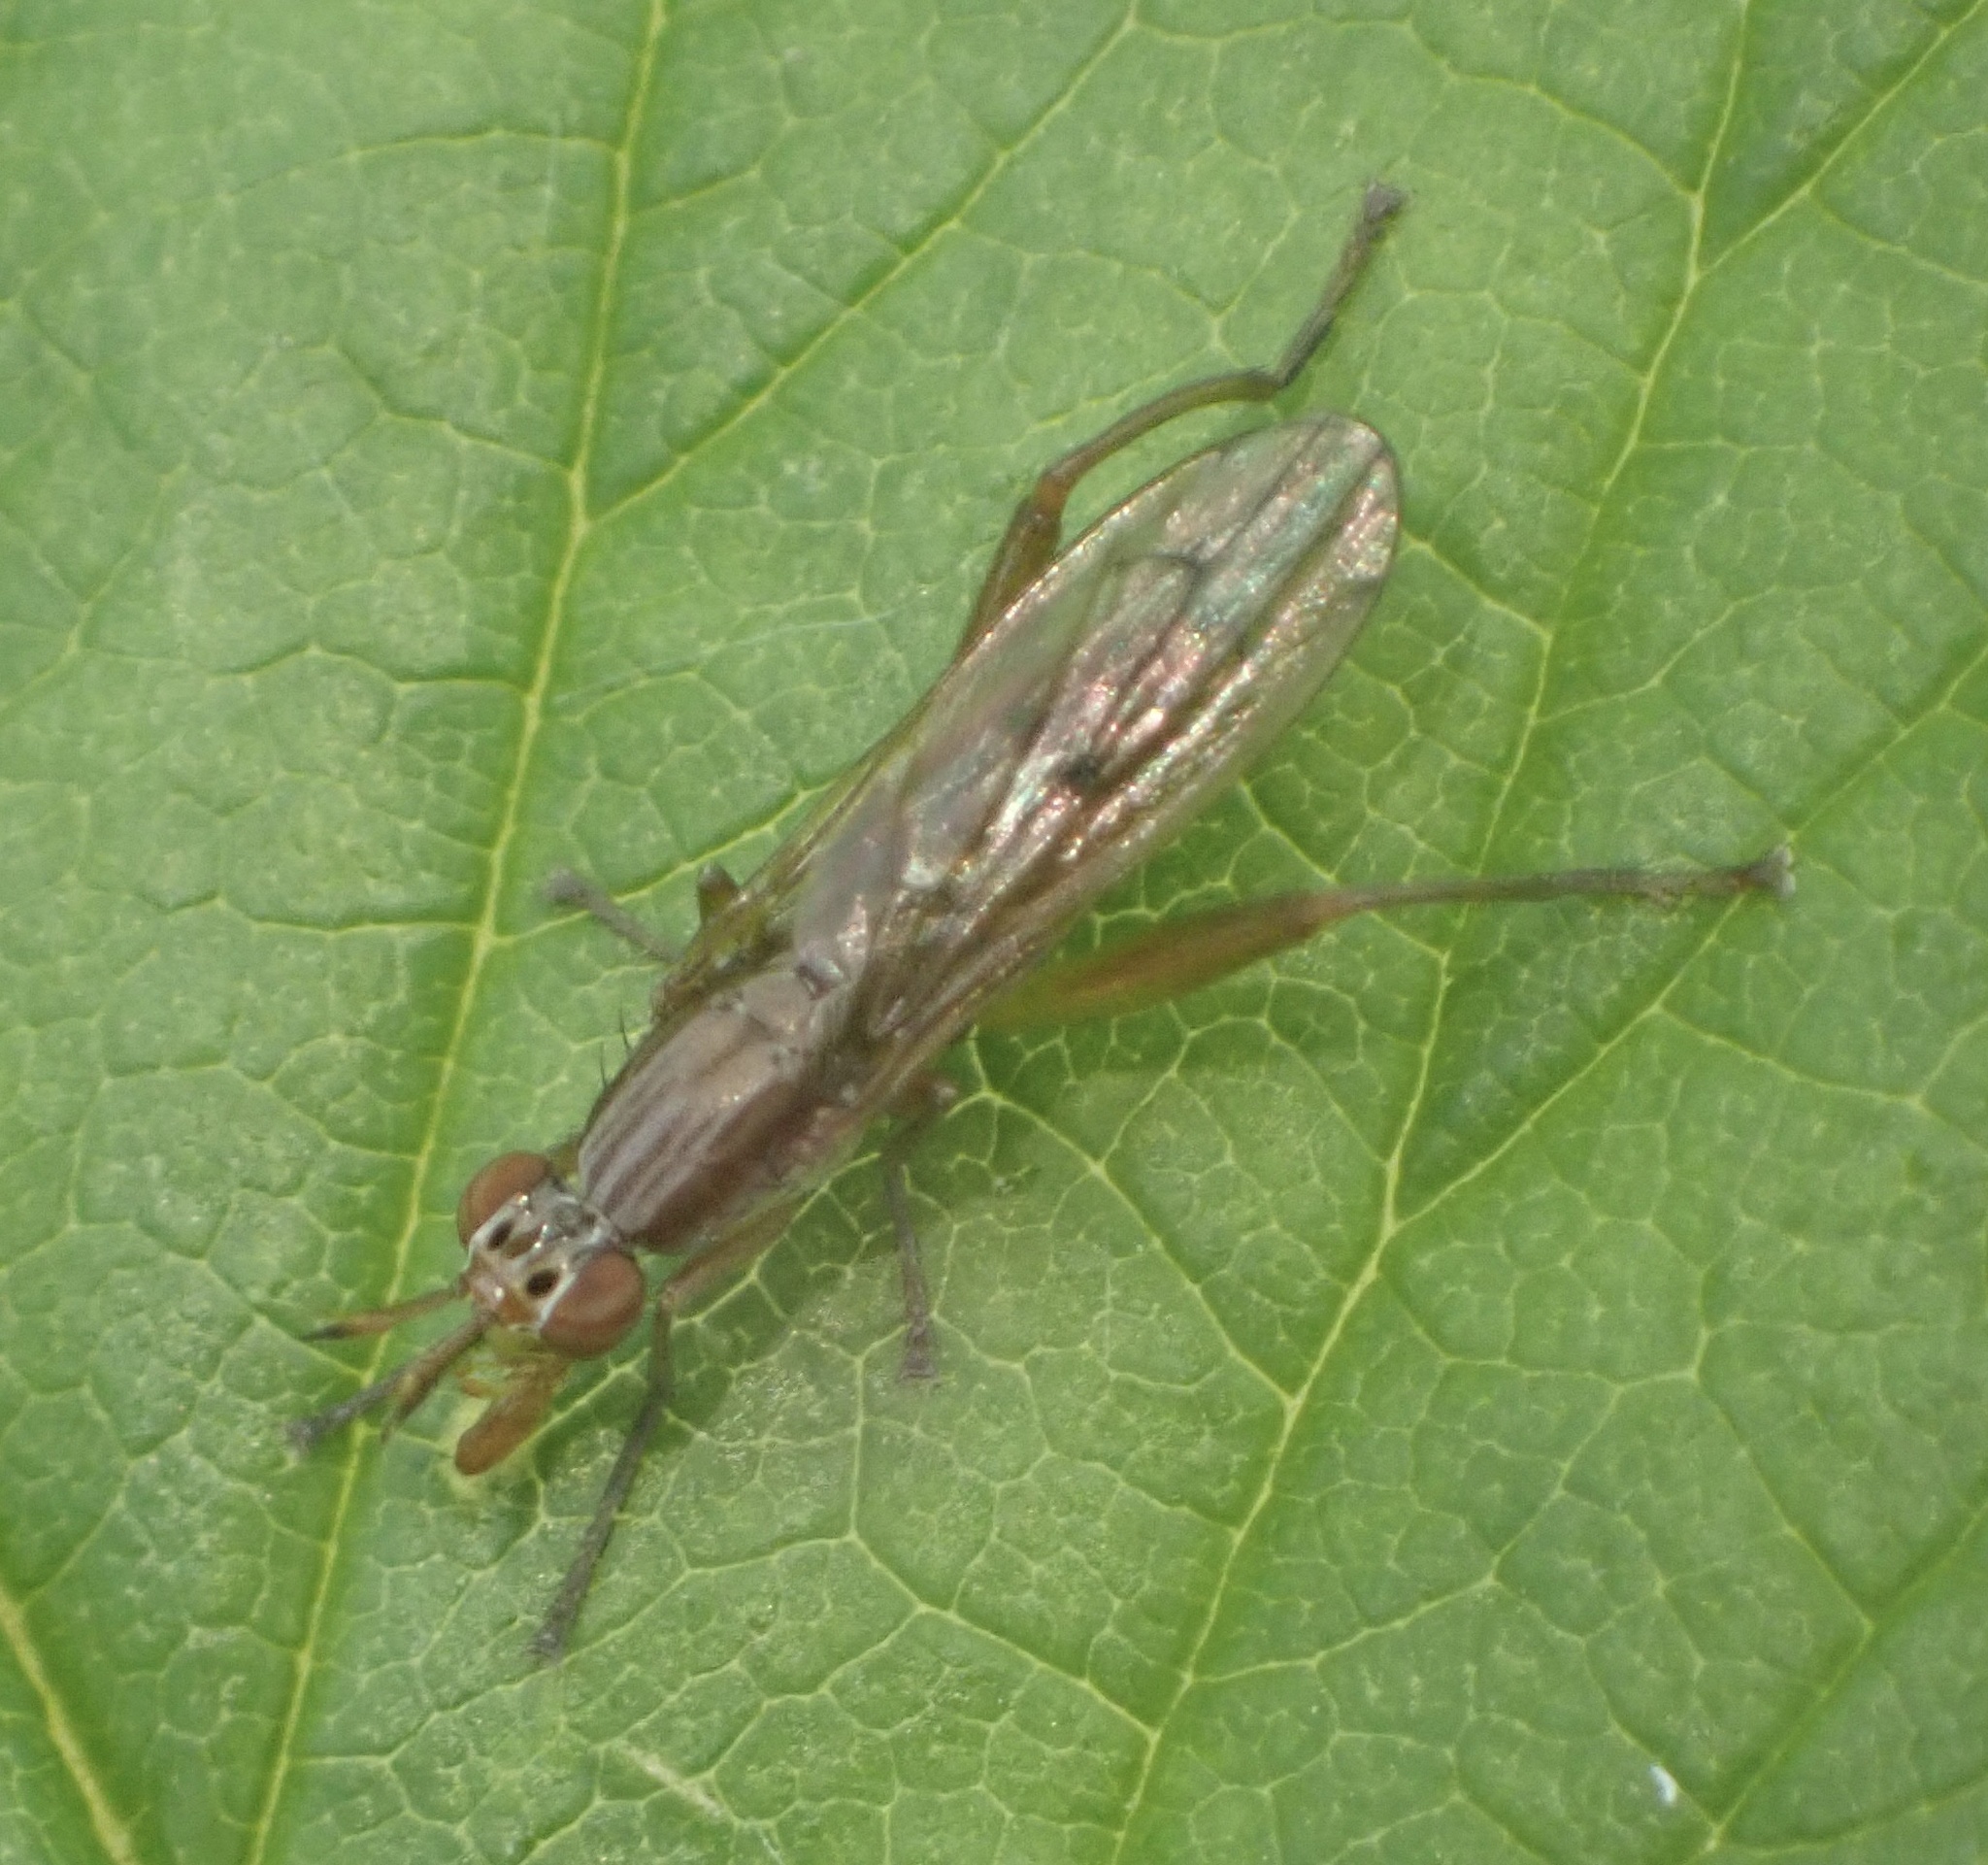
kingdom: Animalia
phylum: Arthropoda
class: Insecta
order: Diptera
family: Sciomyzidae
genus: Sepedon
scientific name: Sepedon spinipes
